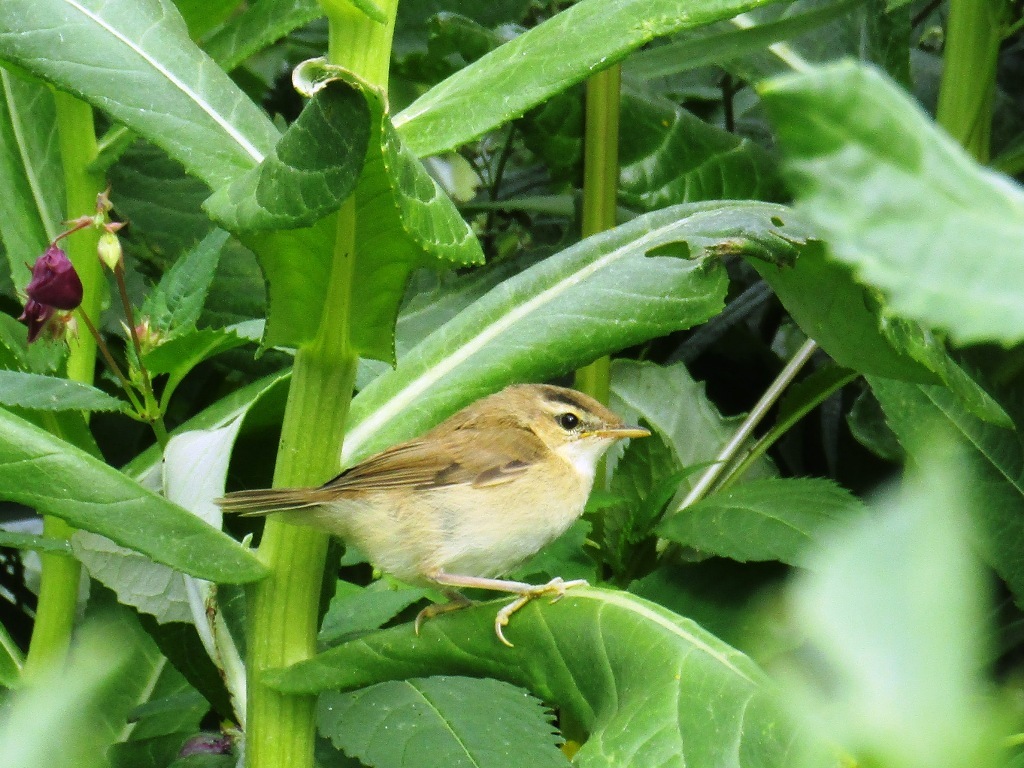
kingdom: Animalia
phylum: Chordata
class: Aves
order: Passeriformes
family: Acrocephalidae
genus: Acrocephalus
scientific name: Acrocephalus bistrigiceps
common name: Black-browed reed warbler
